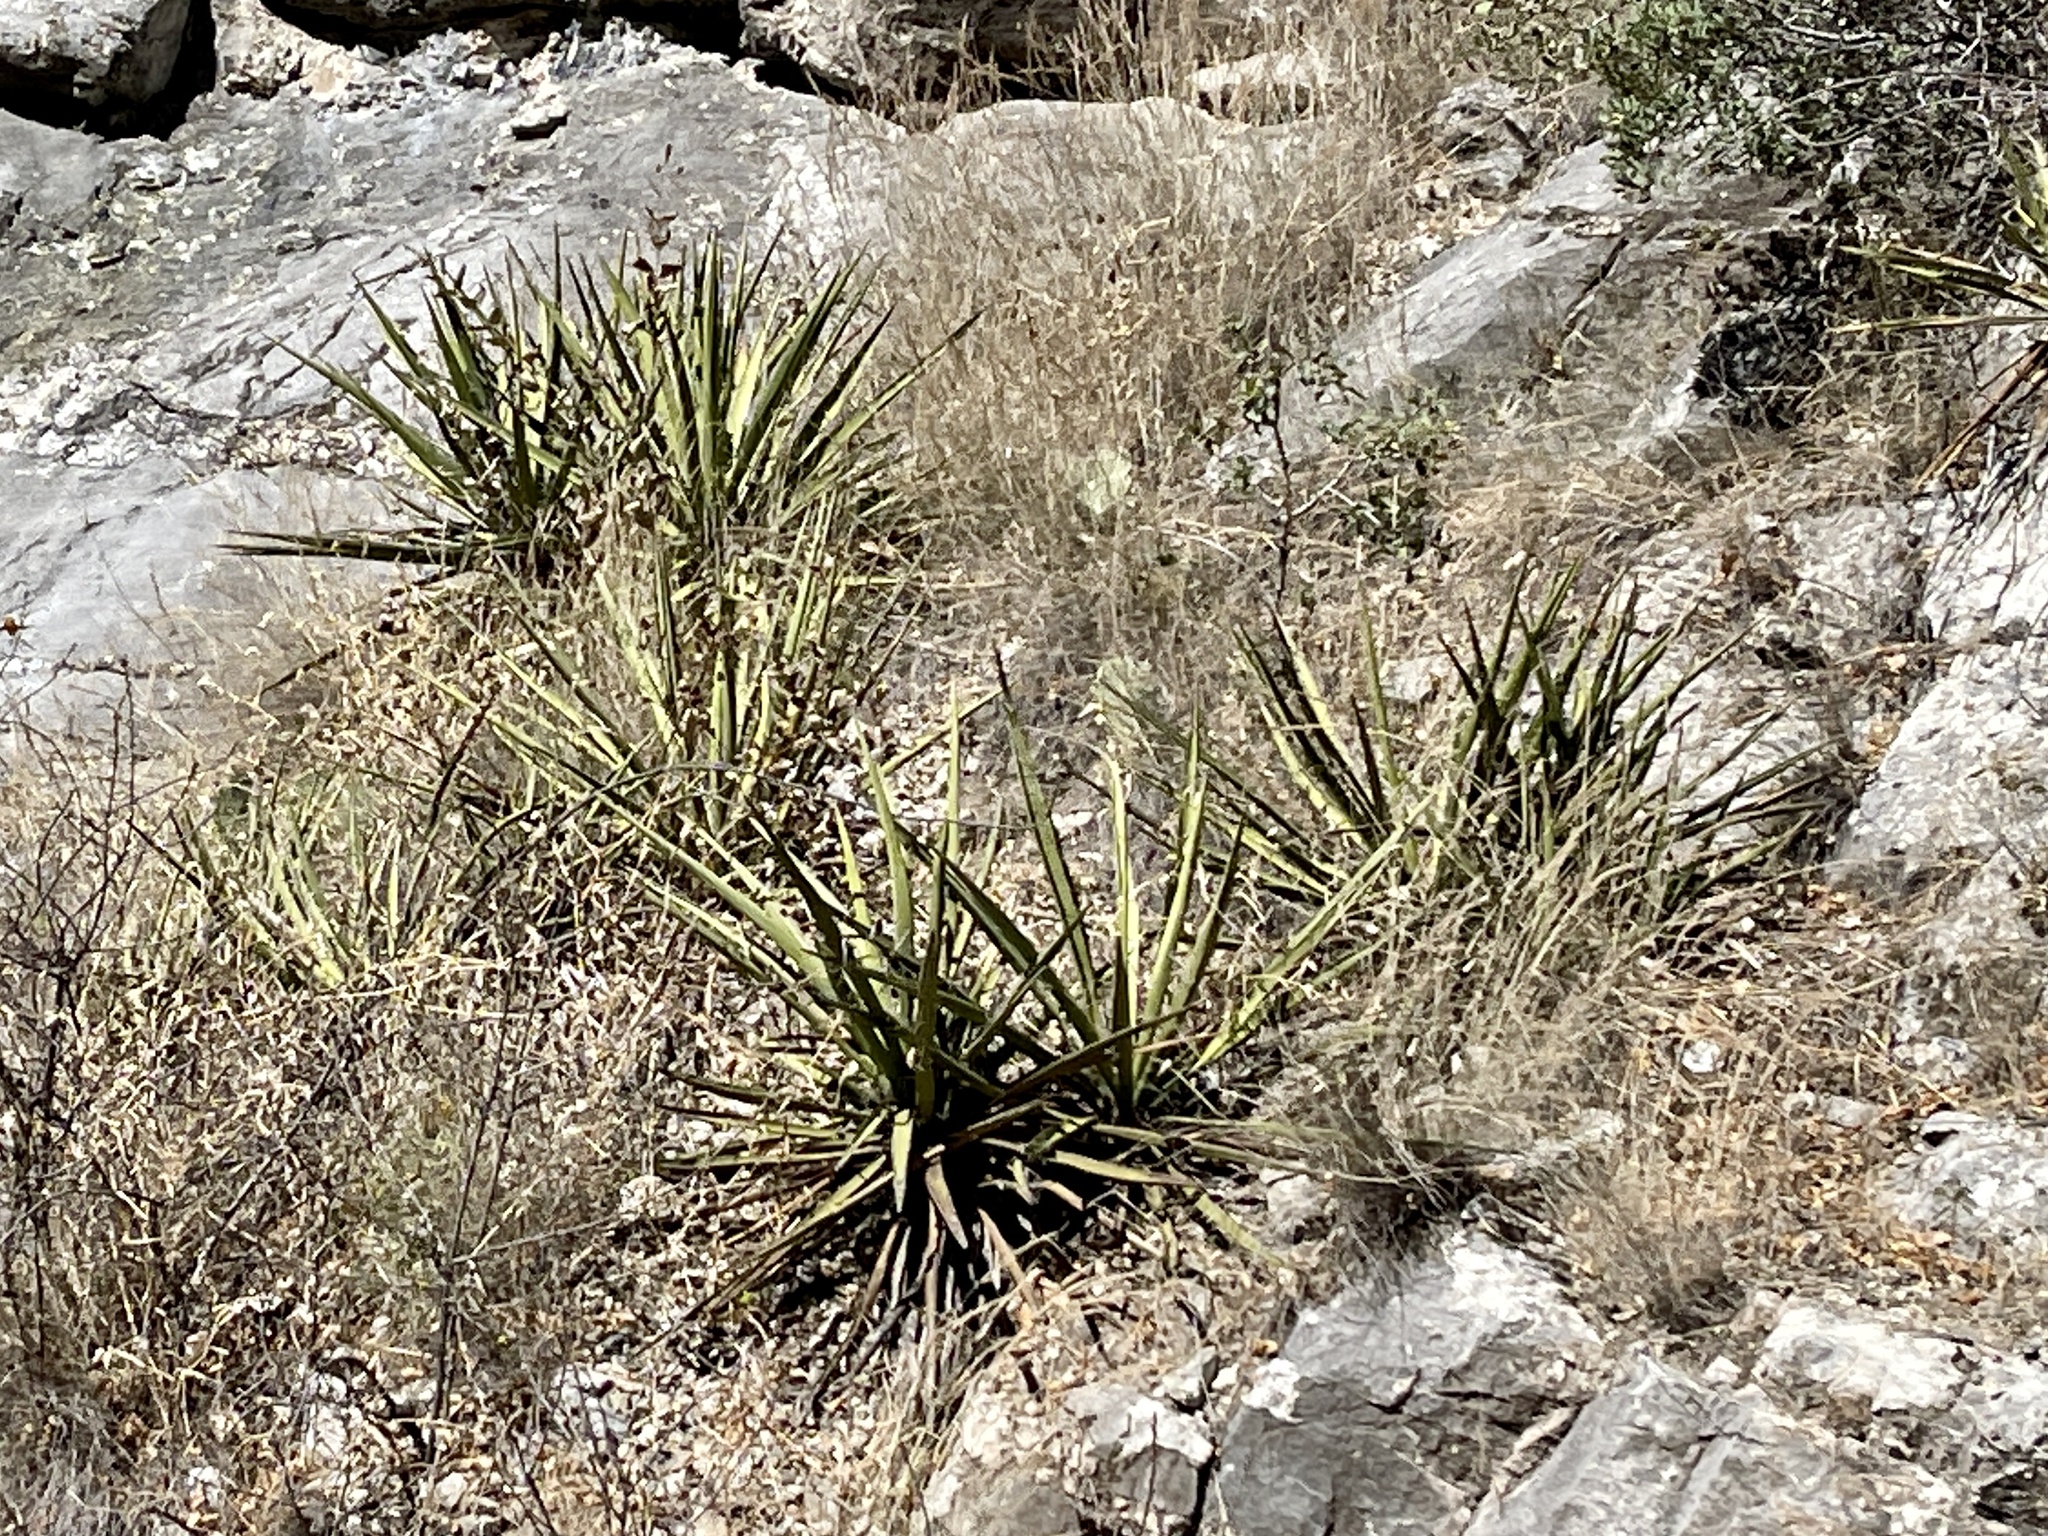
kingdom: Plantae
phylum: Tracheophyta
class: Liliopsida
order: Asparagales
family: Asparagaceae
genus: Yucca
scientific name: Yucca baccata
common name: Banana yucca
